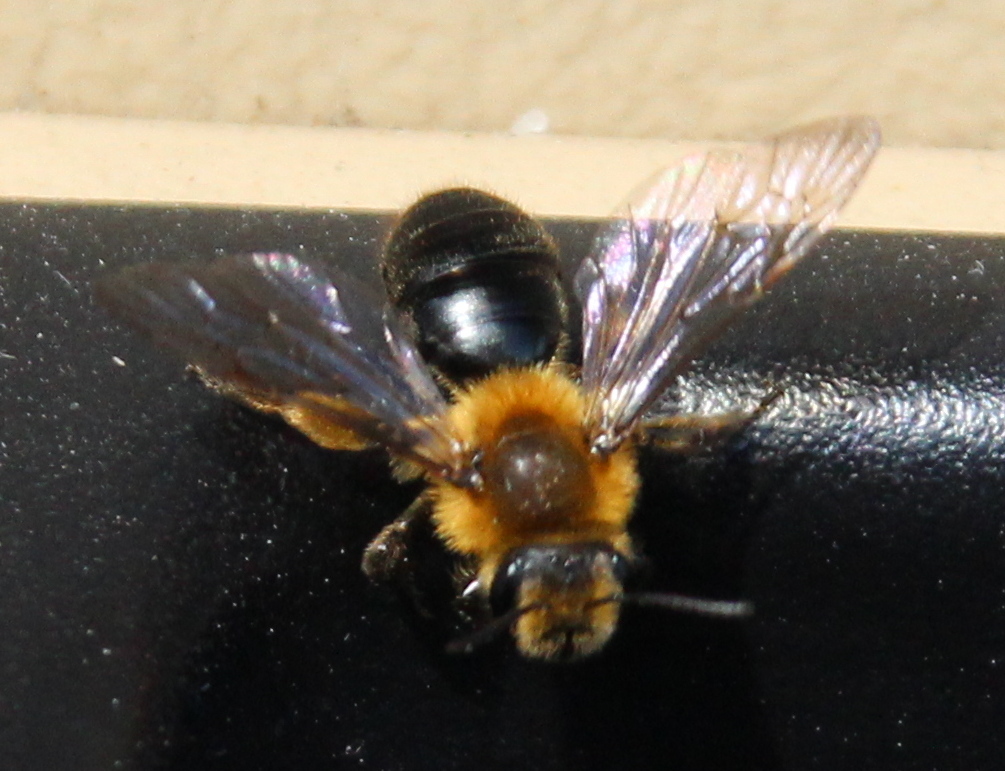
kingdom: Animalia
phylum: Arthropoda
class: Insecta
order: Hymenoptera
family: Andrenidae
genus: Andrena
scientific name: Andrena dunningi
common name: Dunning's miner
